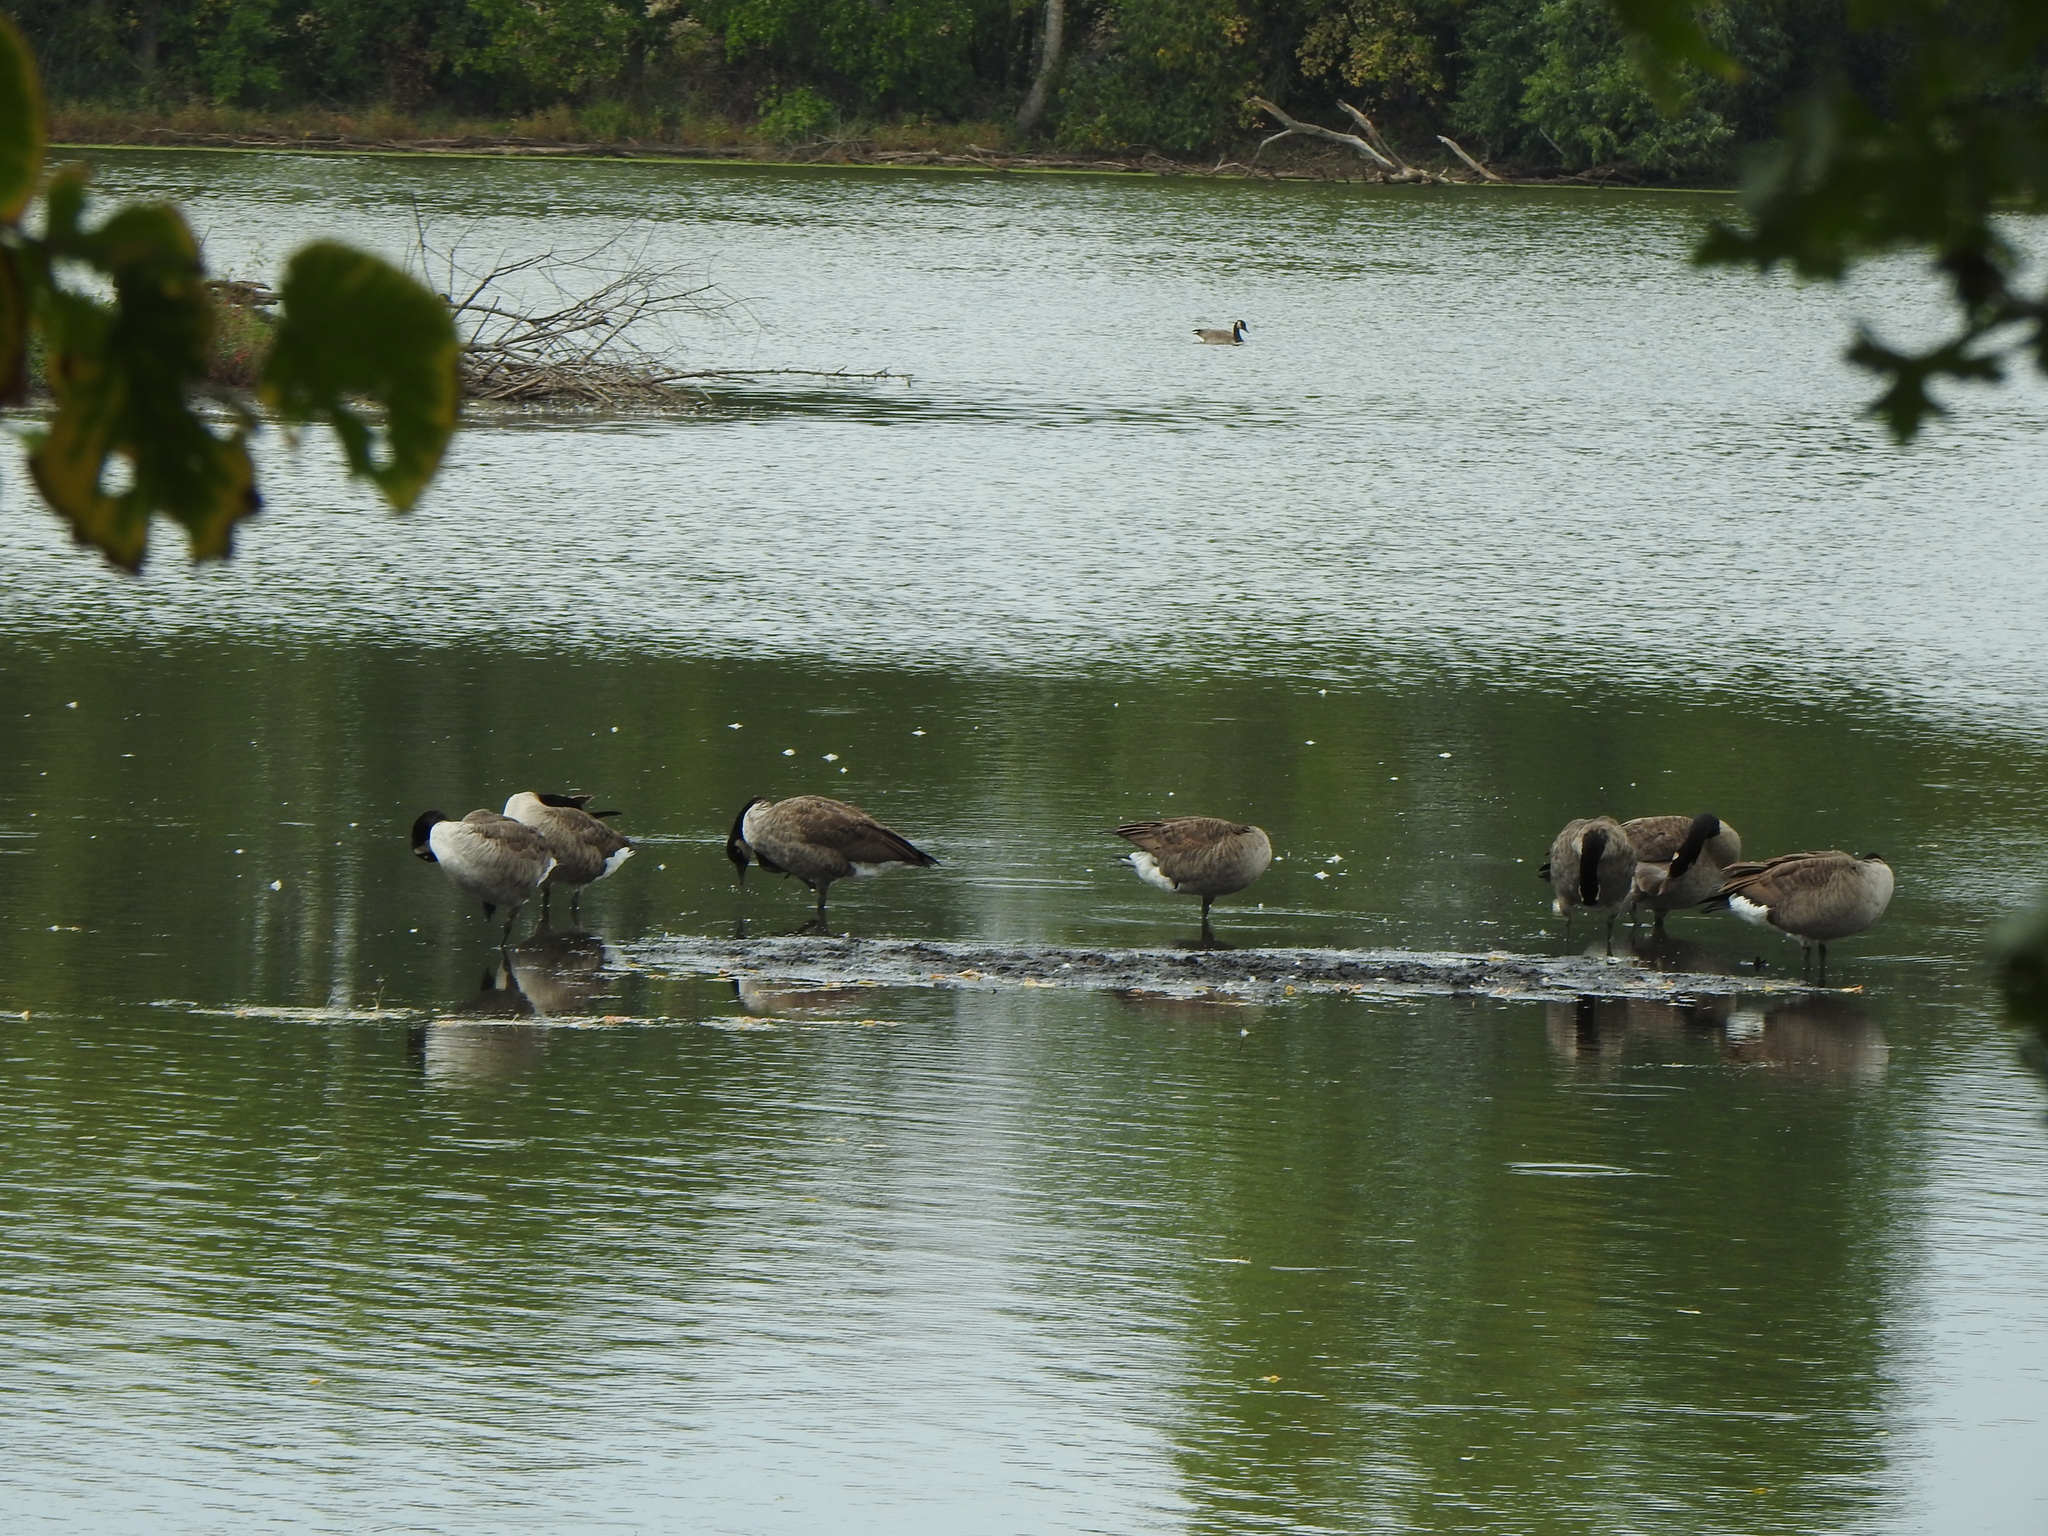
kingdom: Animalia
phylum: Chordata
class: Aves
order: Anseriformes
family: Anatidae
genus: Branta
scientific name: Branta canadensis
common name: Canada goose
